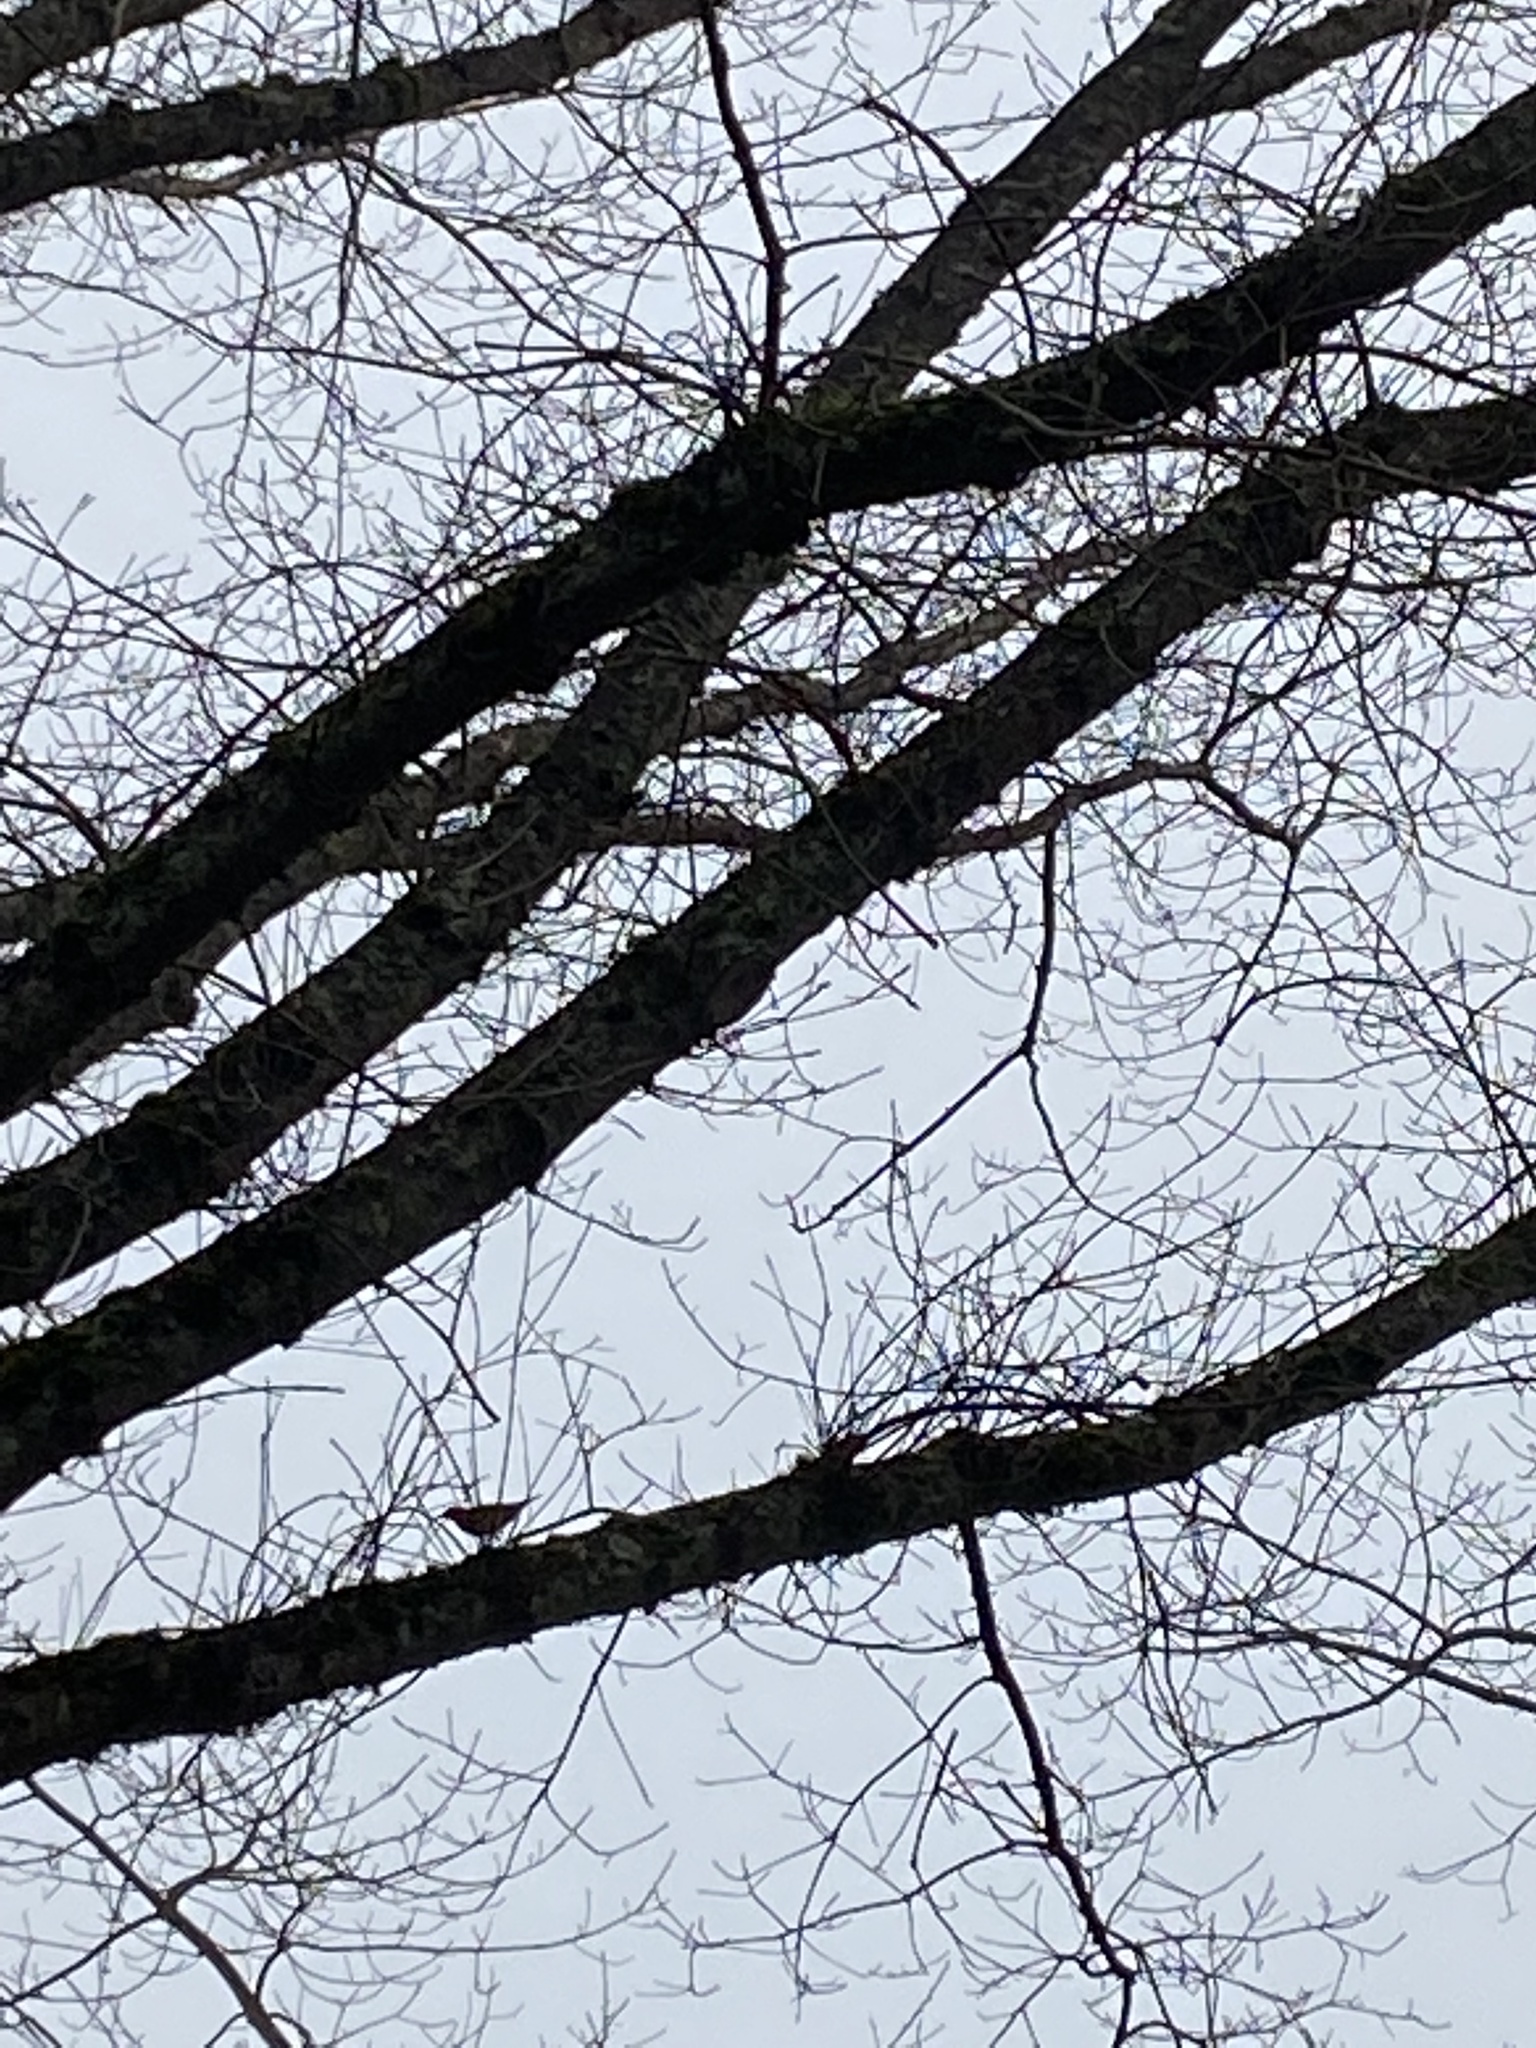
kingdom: Animalia
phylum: Chordata
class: Aves
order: Passeriformes
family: Turdidae
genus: Ixoreus
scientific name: Ixoreus naevius
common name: Varied thrush
